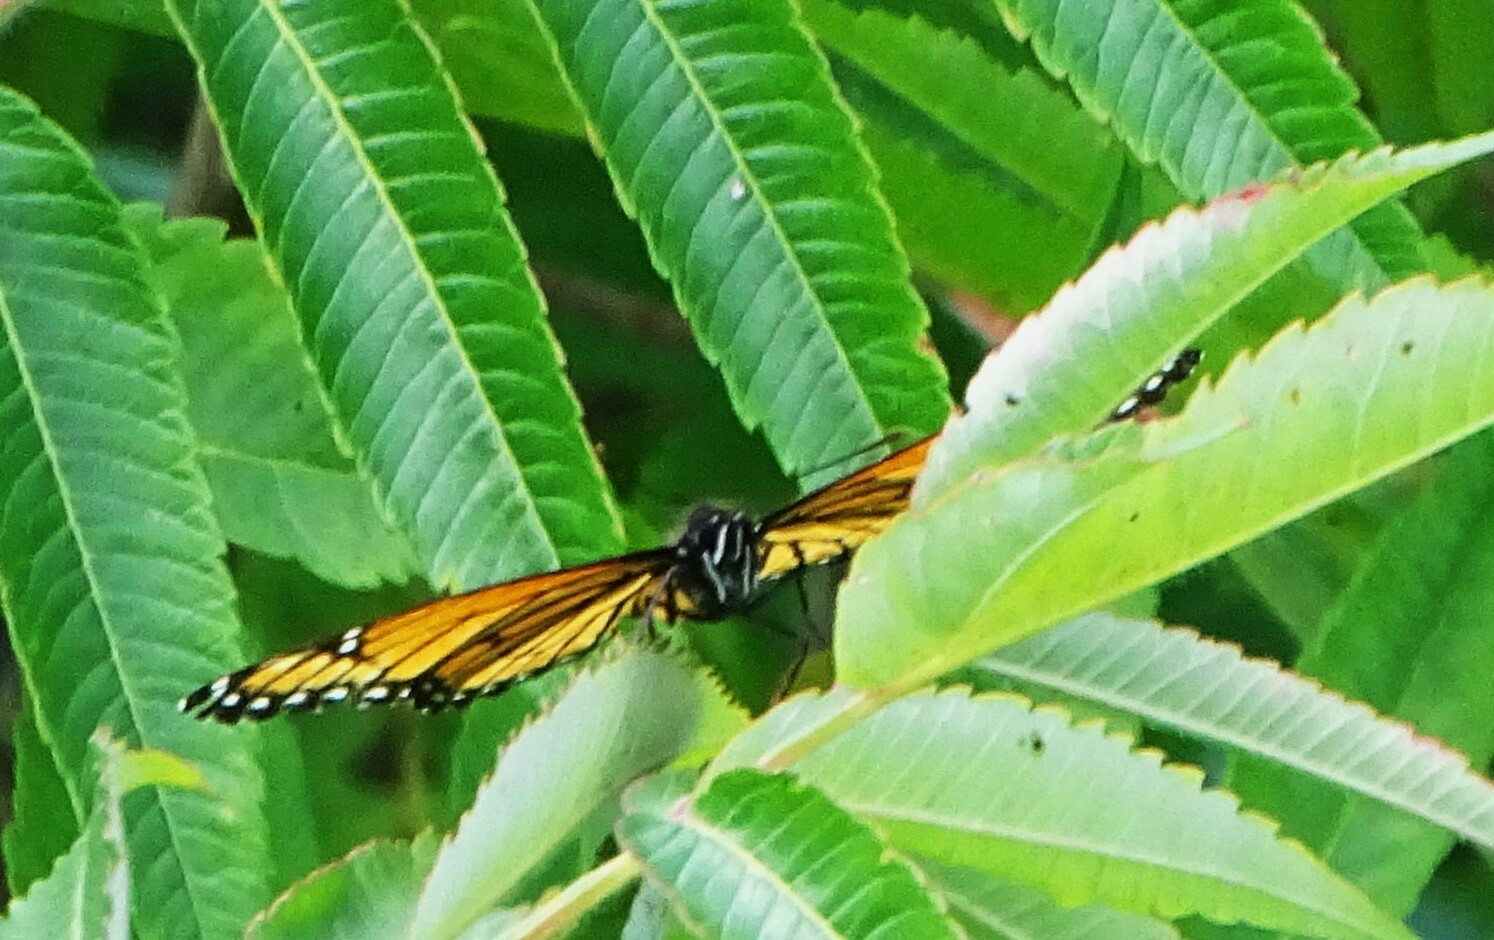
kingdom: Animalia
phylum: Arthropoda
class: Insecta
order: Lepidoptera
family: Nymphalidae
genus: Limenitis
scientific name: Limenitis archippus
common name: Viceroy
